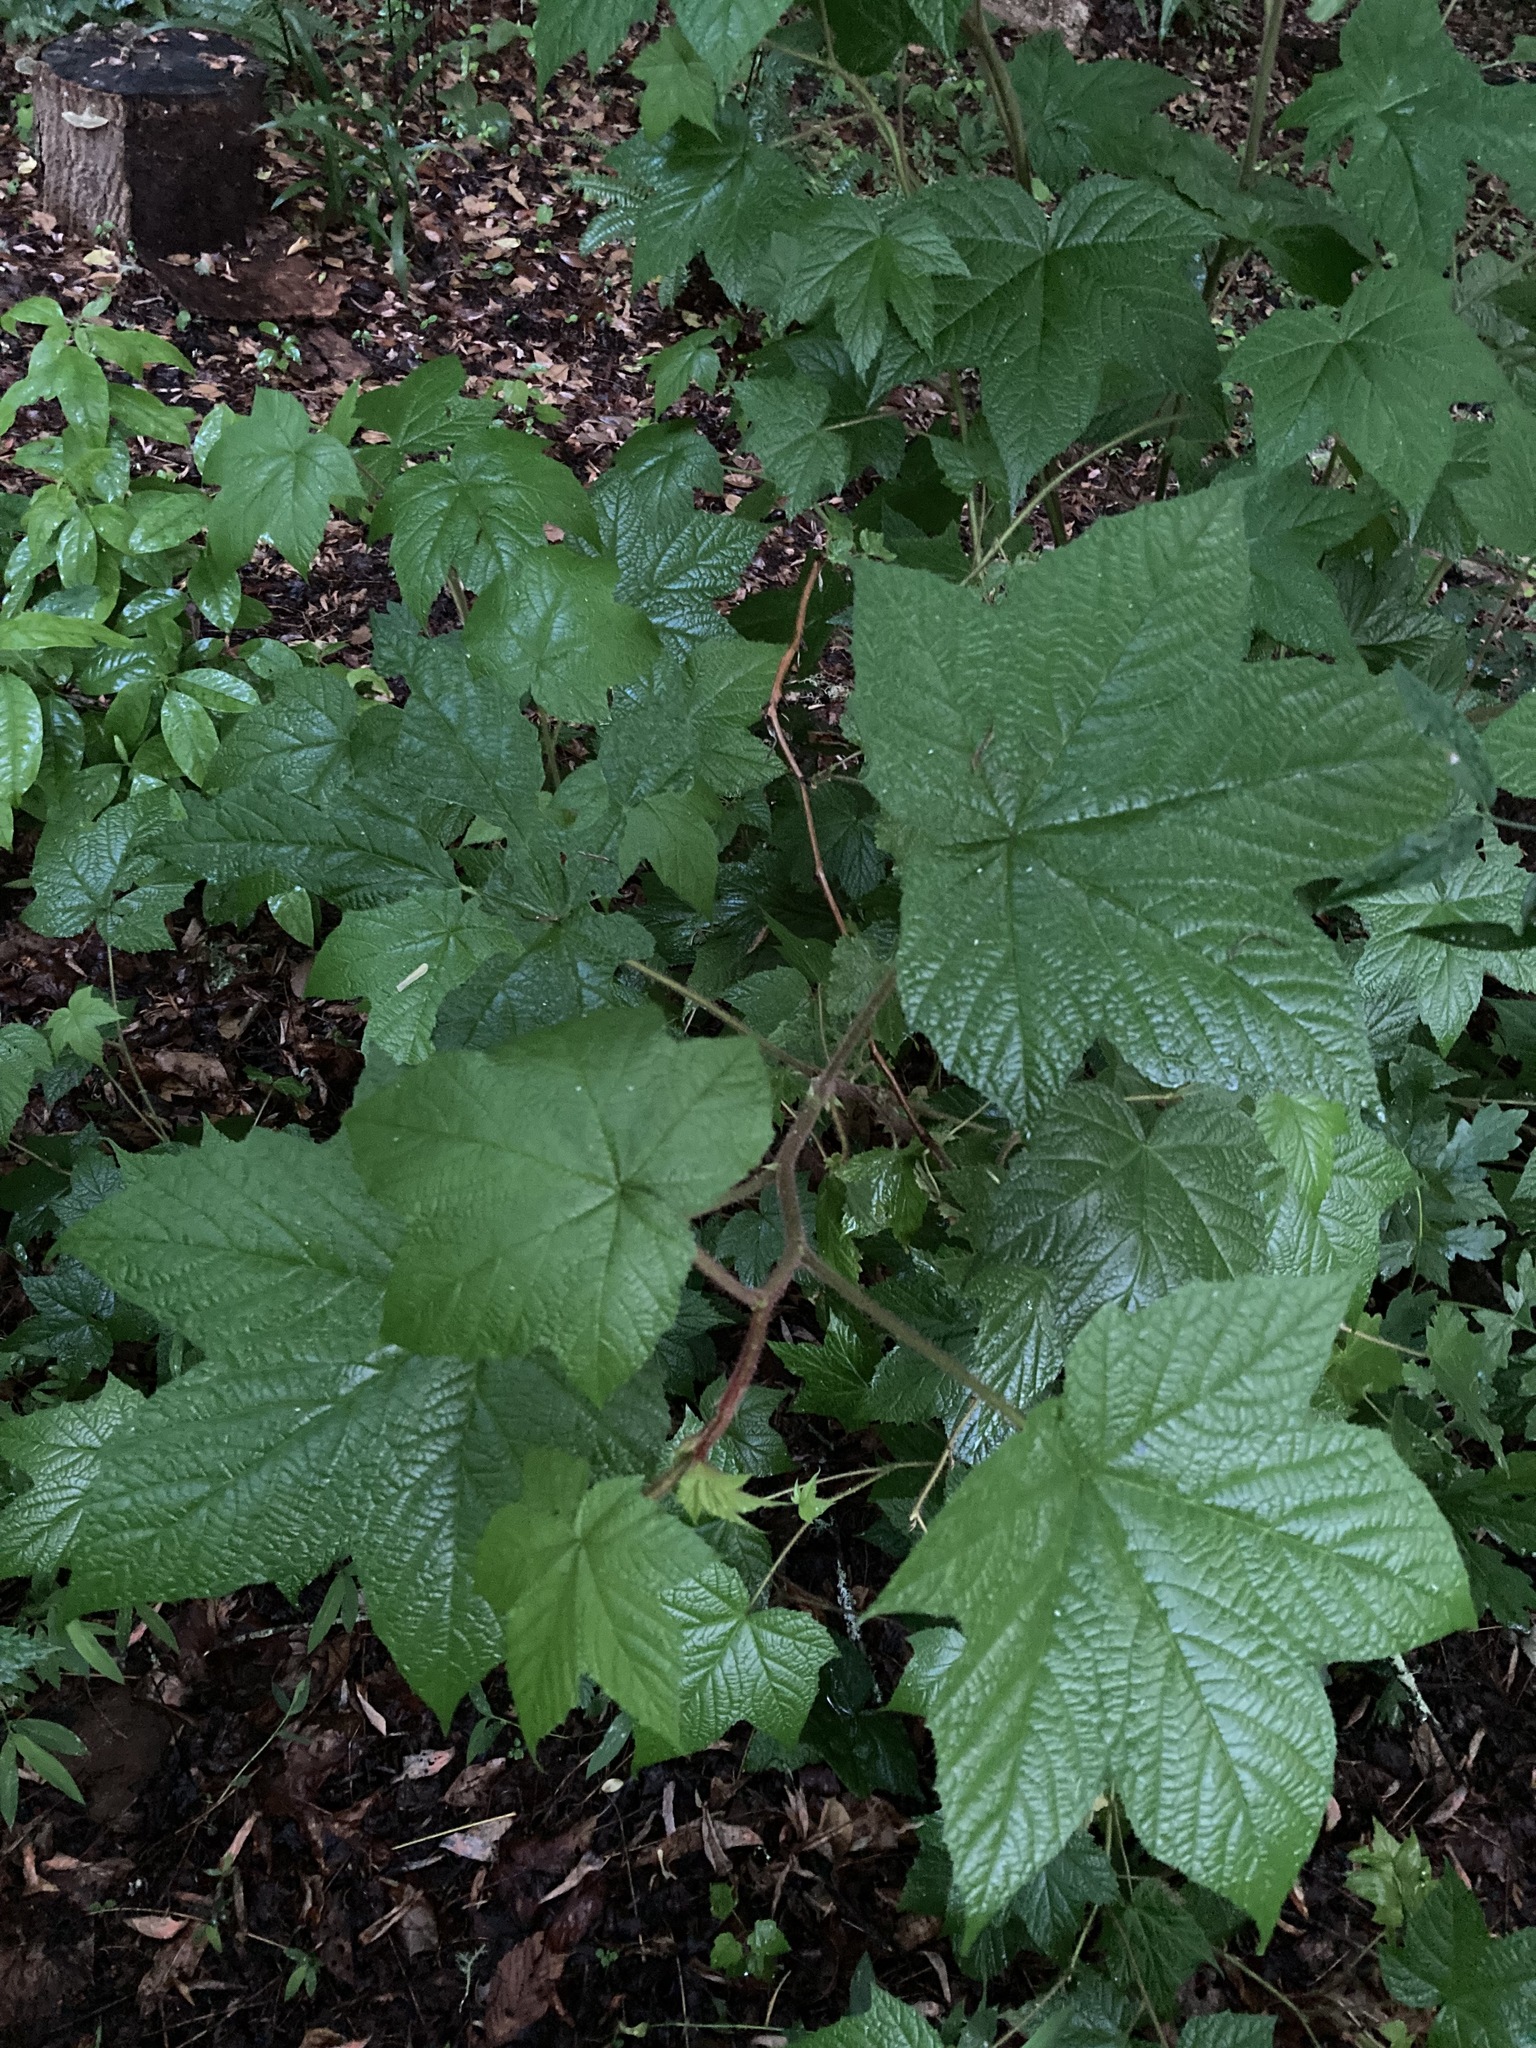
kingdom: Plantae
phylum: Tracheophyta
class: Magnoliopsida
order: Rosales
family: Rosaceae
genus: Rubus
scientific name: Rubus odoratus
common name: Purple-flowered raspberry
